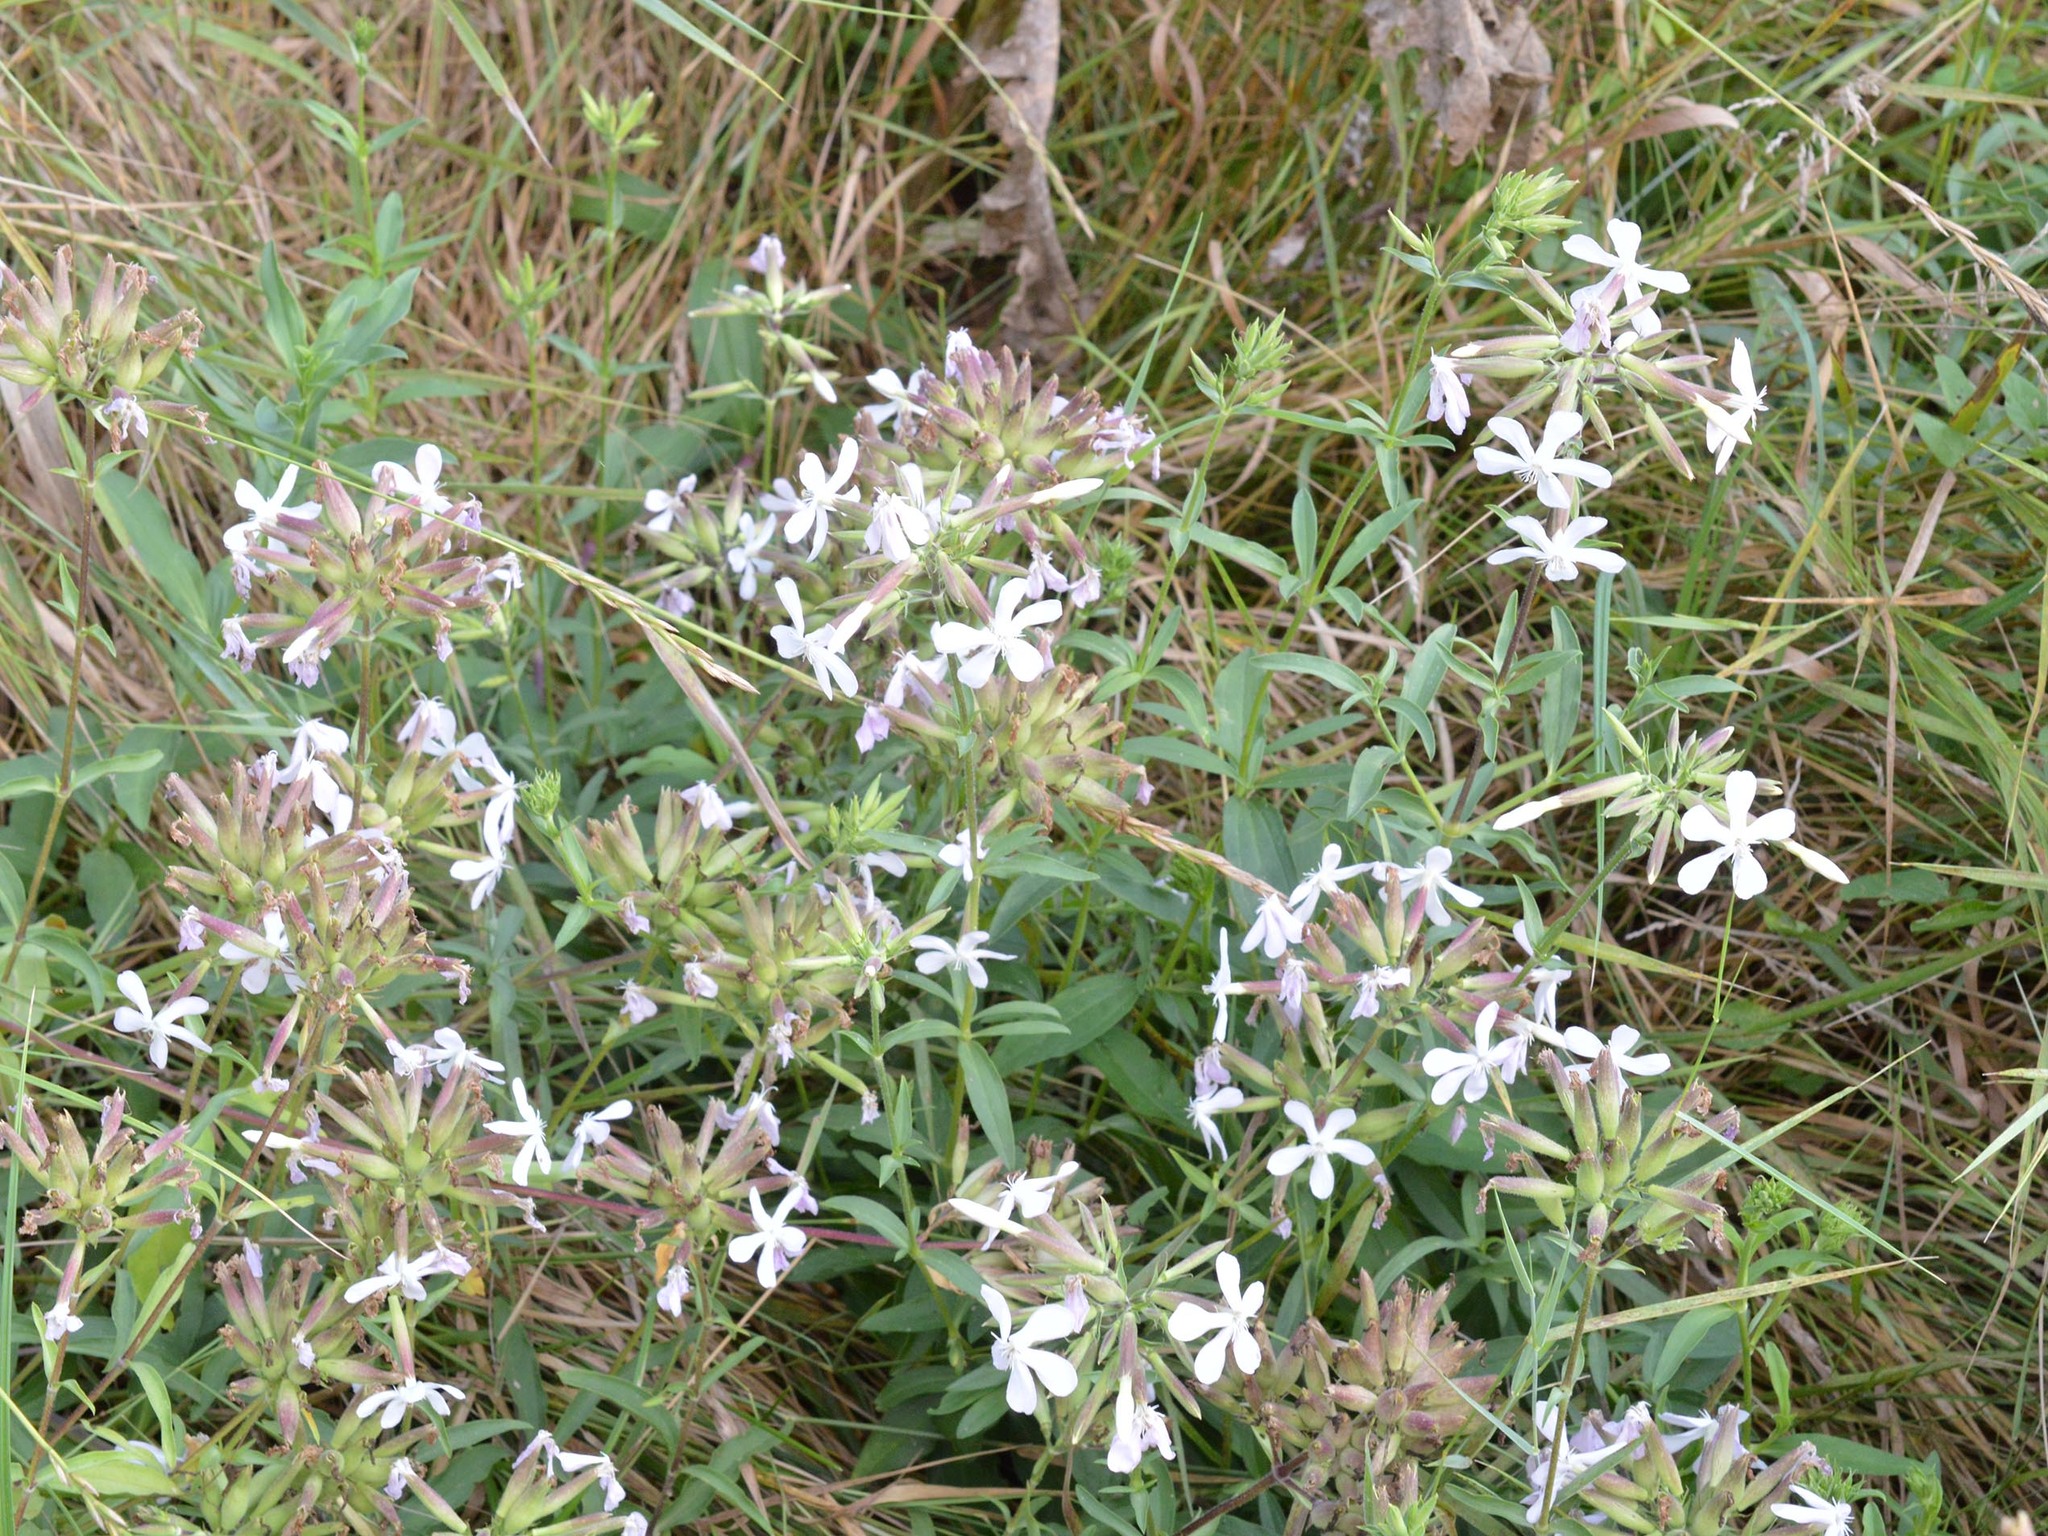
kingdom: Plantae
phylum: Tracheophyta
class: Magnoliopsida
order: Caryophyllales
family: Caryophyllaceae
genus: Saponaria
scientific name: Saponaria officinalis
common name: Soapwort
